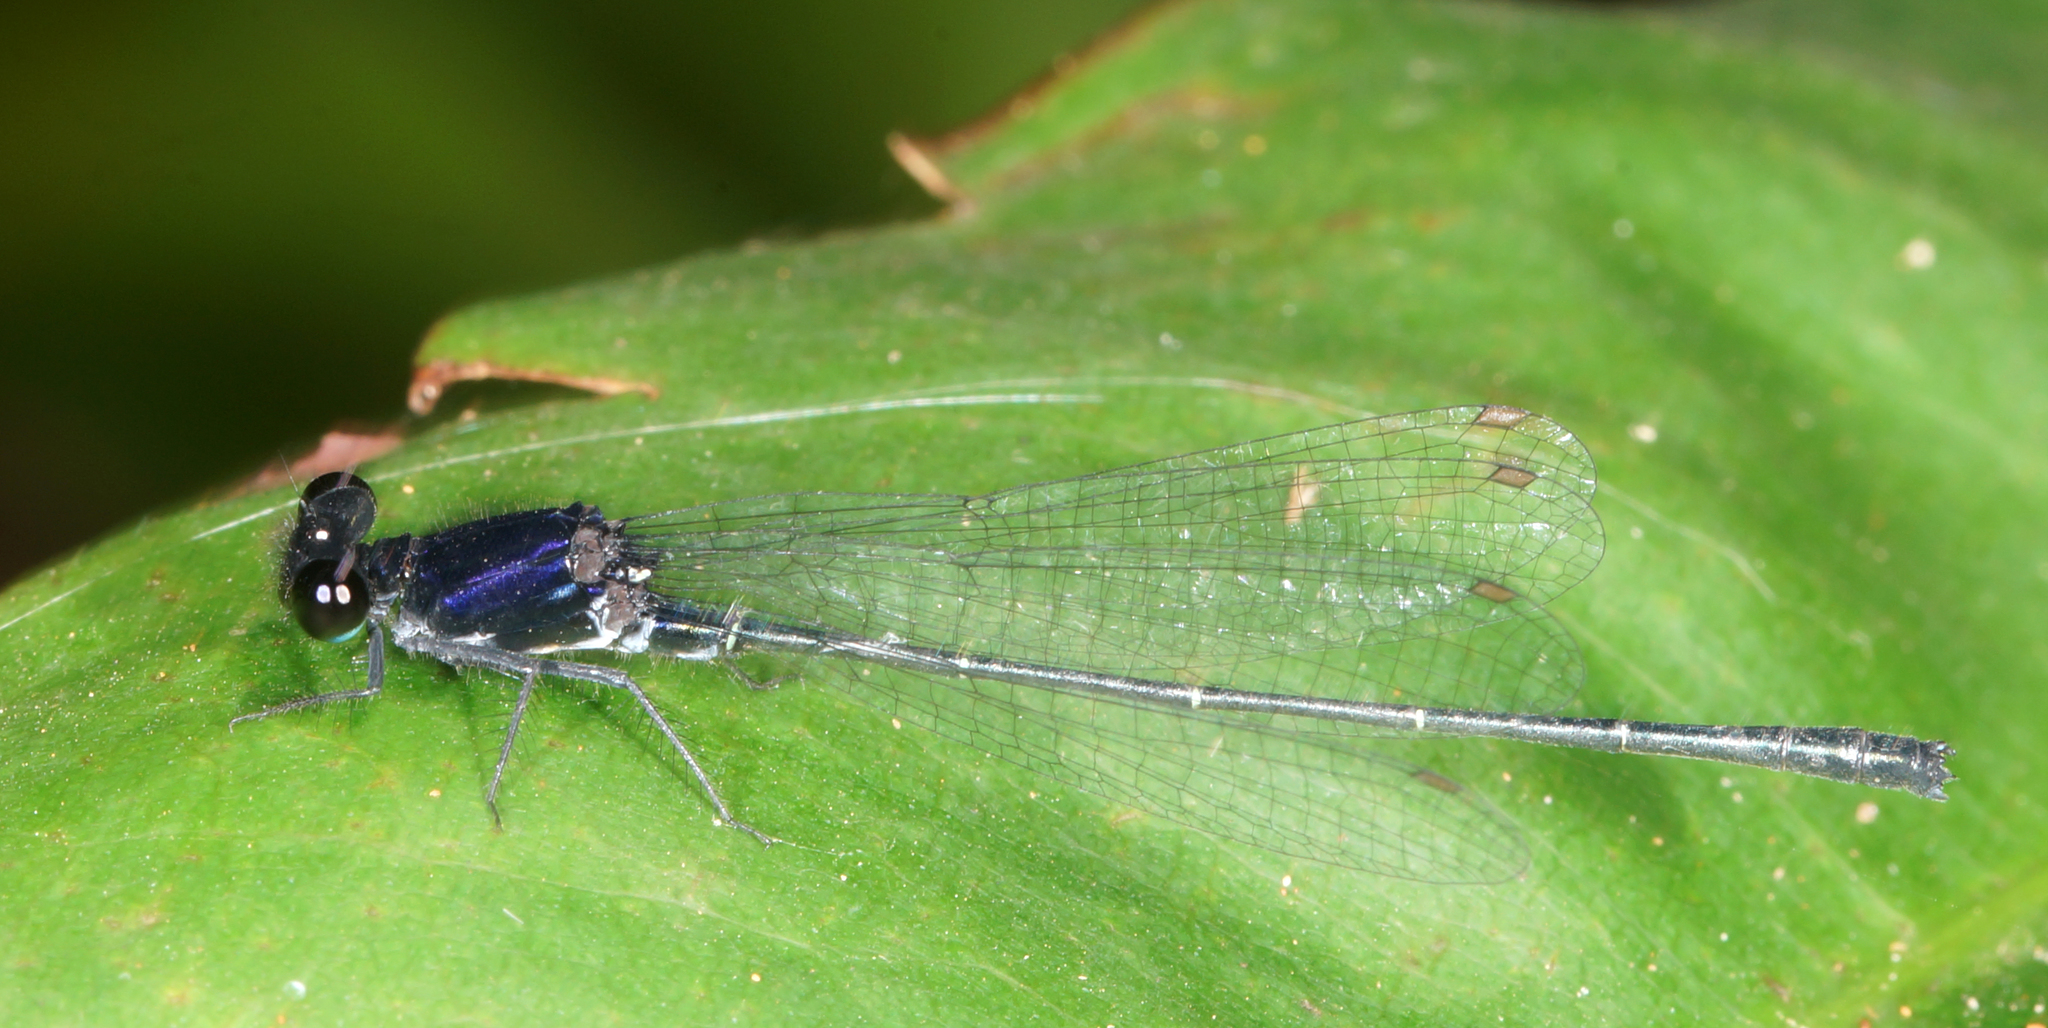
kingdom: Animalia
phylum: Arthropoda
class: Insecta
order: Odonata
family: Platycnemididae
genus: Onychargia
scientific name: Onychargia atrocyana
